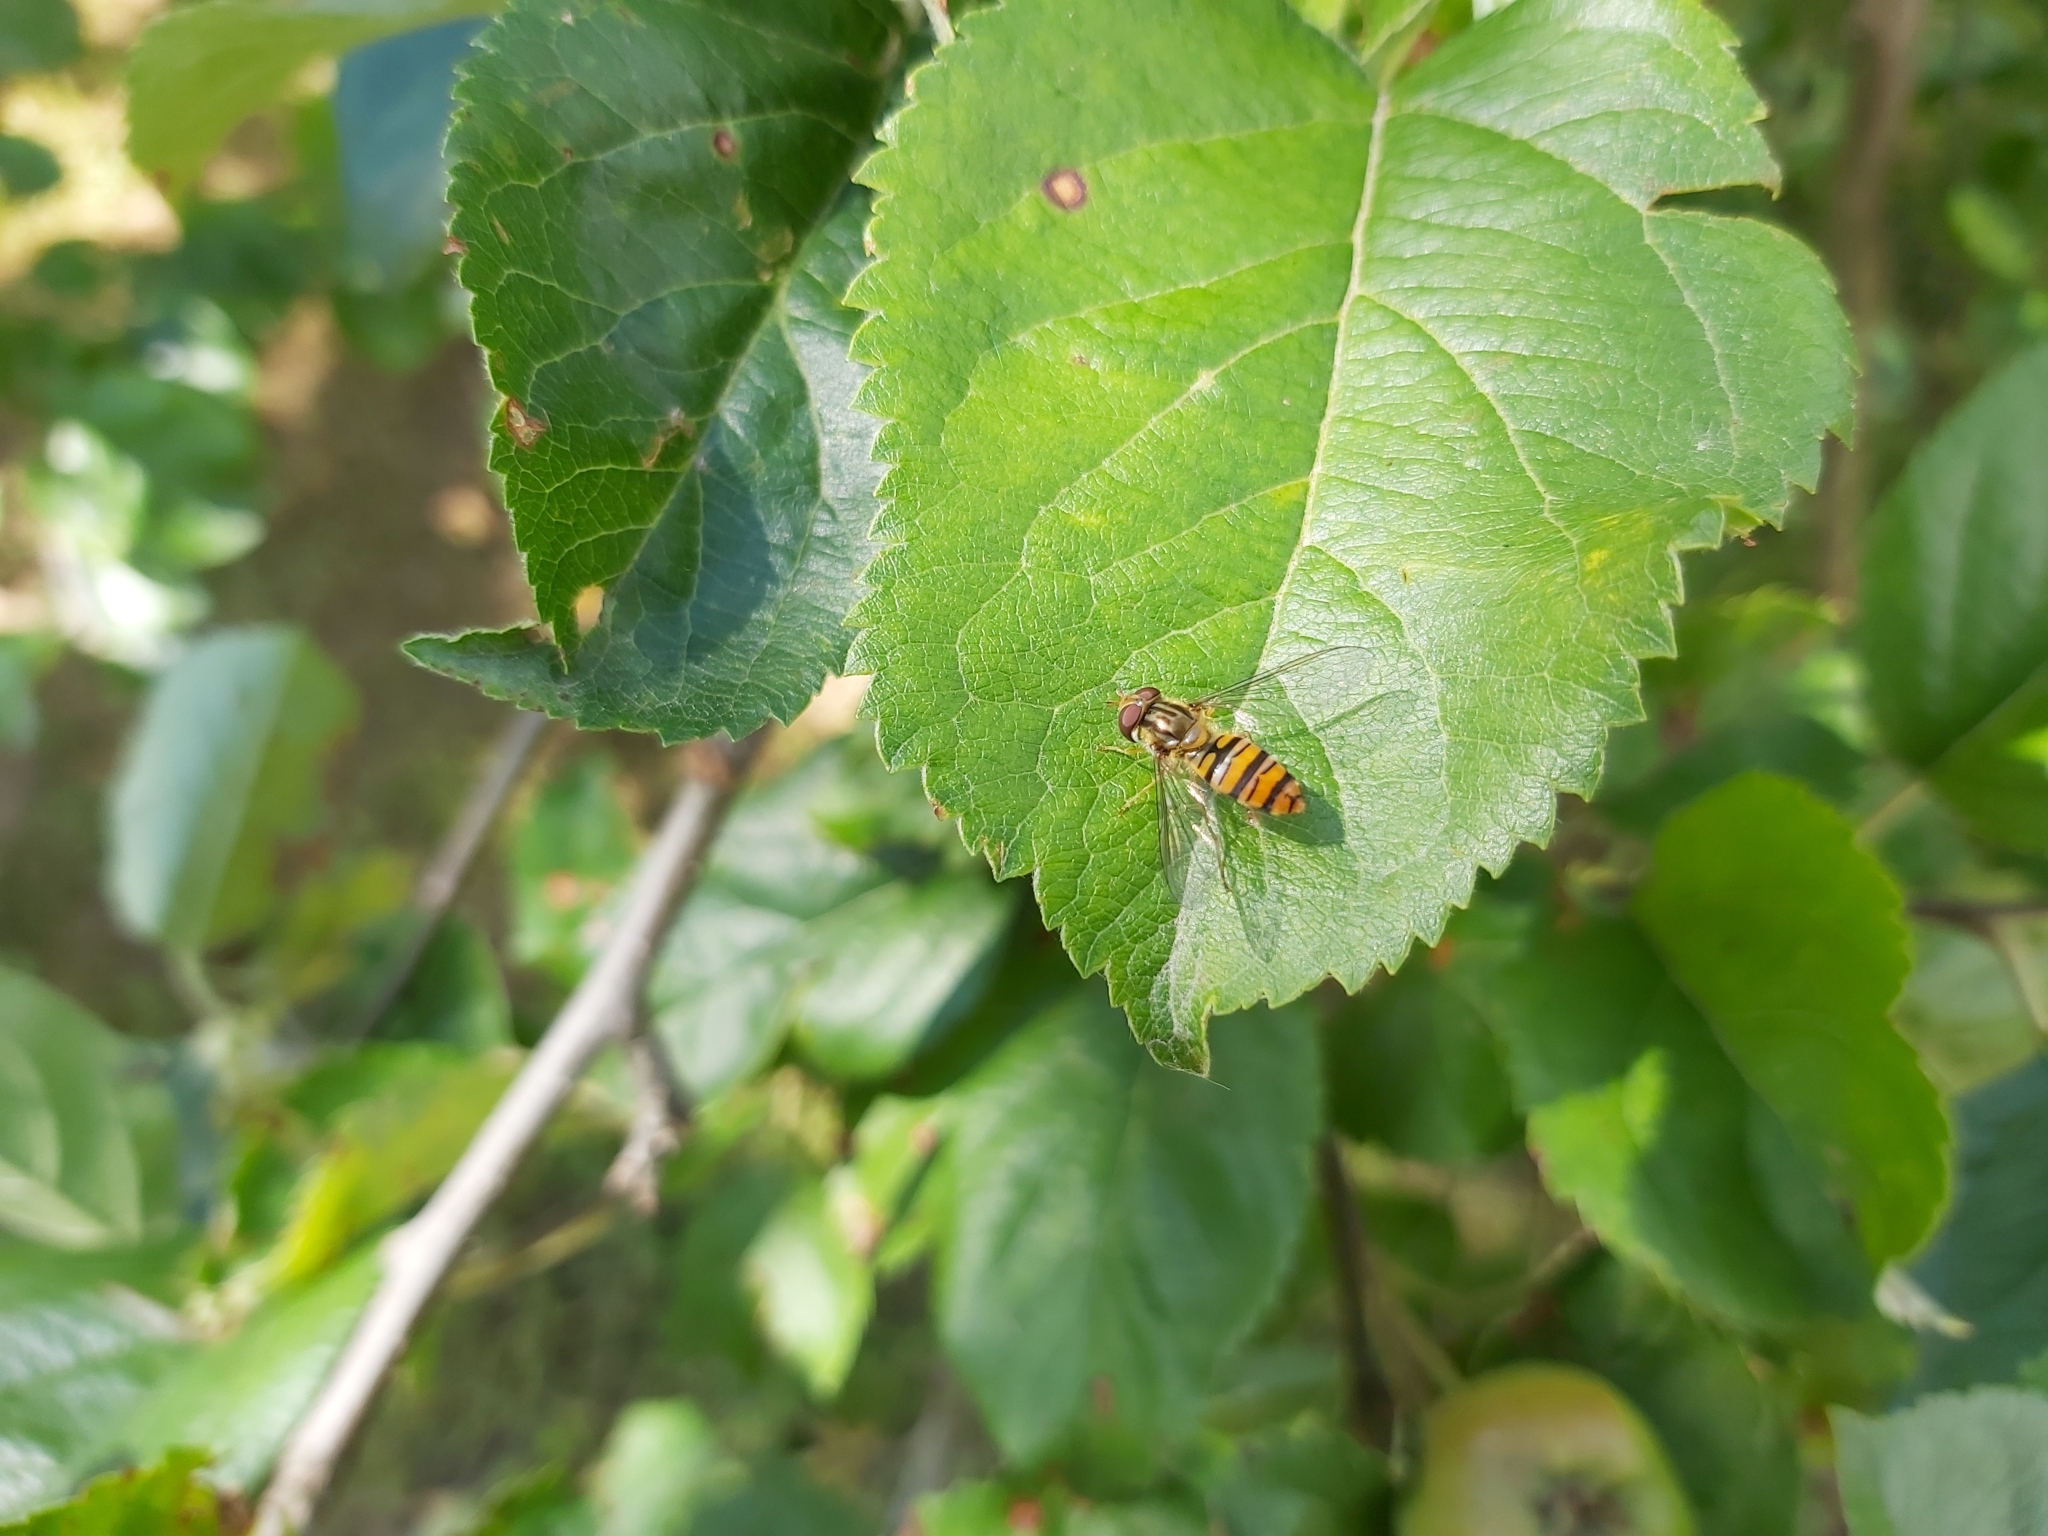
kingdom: Animalia
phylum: Arthropoda
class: Insecta
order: Diptera
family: Syrphidae
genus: Episyrphus
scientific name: Episyrphus balteatus
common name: Marmalade hoverfly
